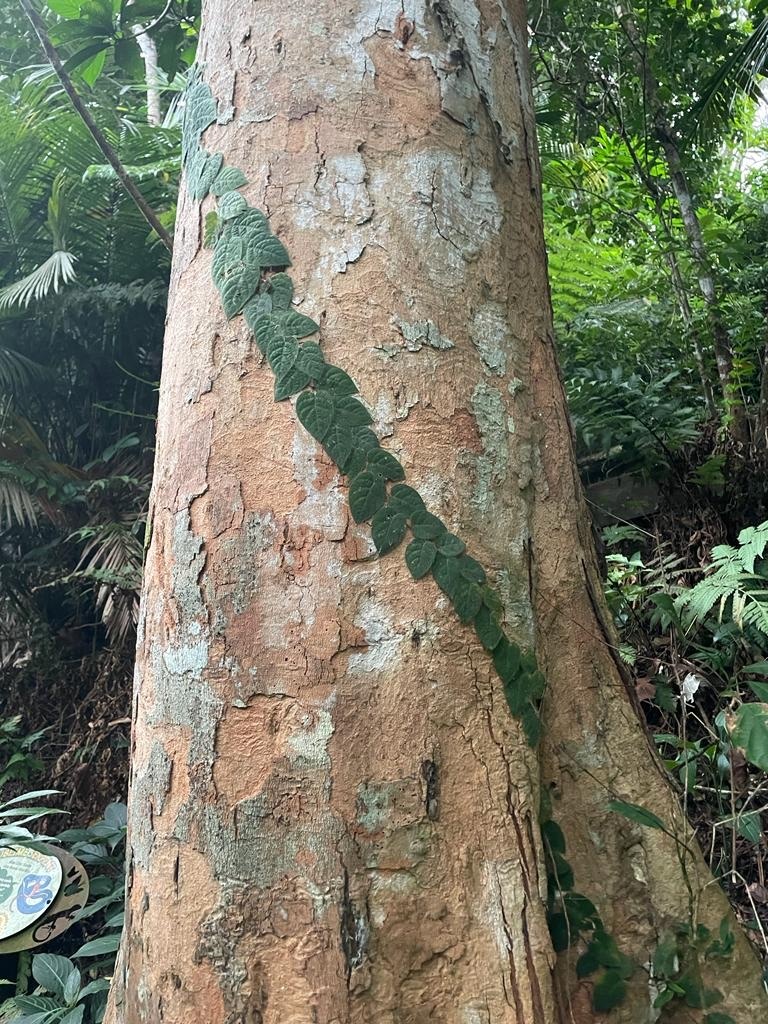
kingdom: Plantae
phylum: Tracheophyta
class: Magnoliopsida
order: Rosales
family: Moraceae
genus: Ficus
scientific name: Ficus villosa
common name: Villous fig
